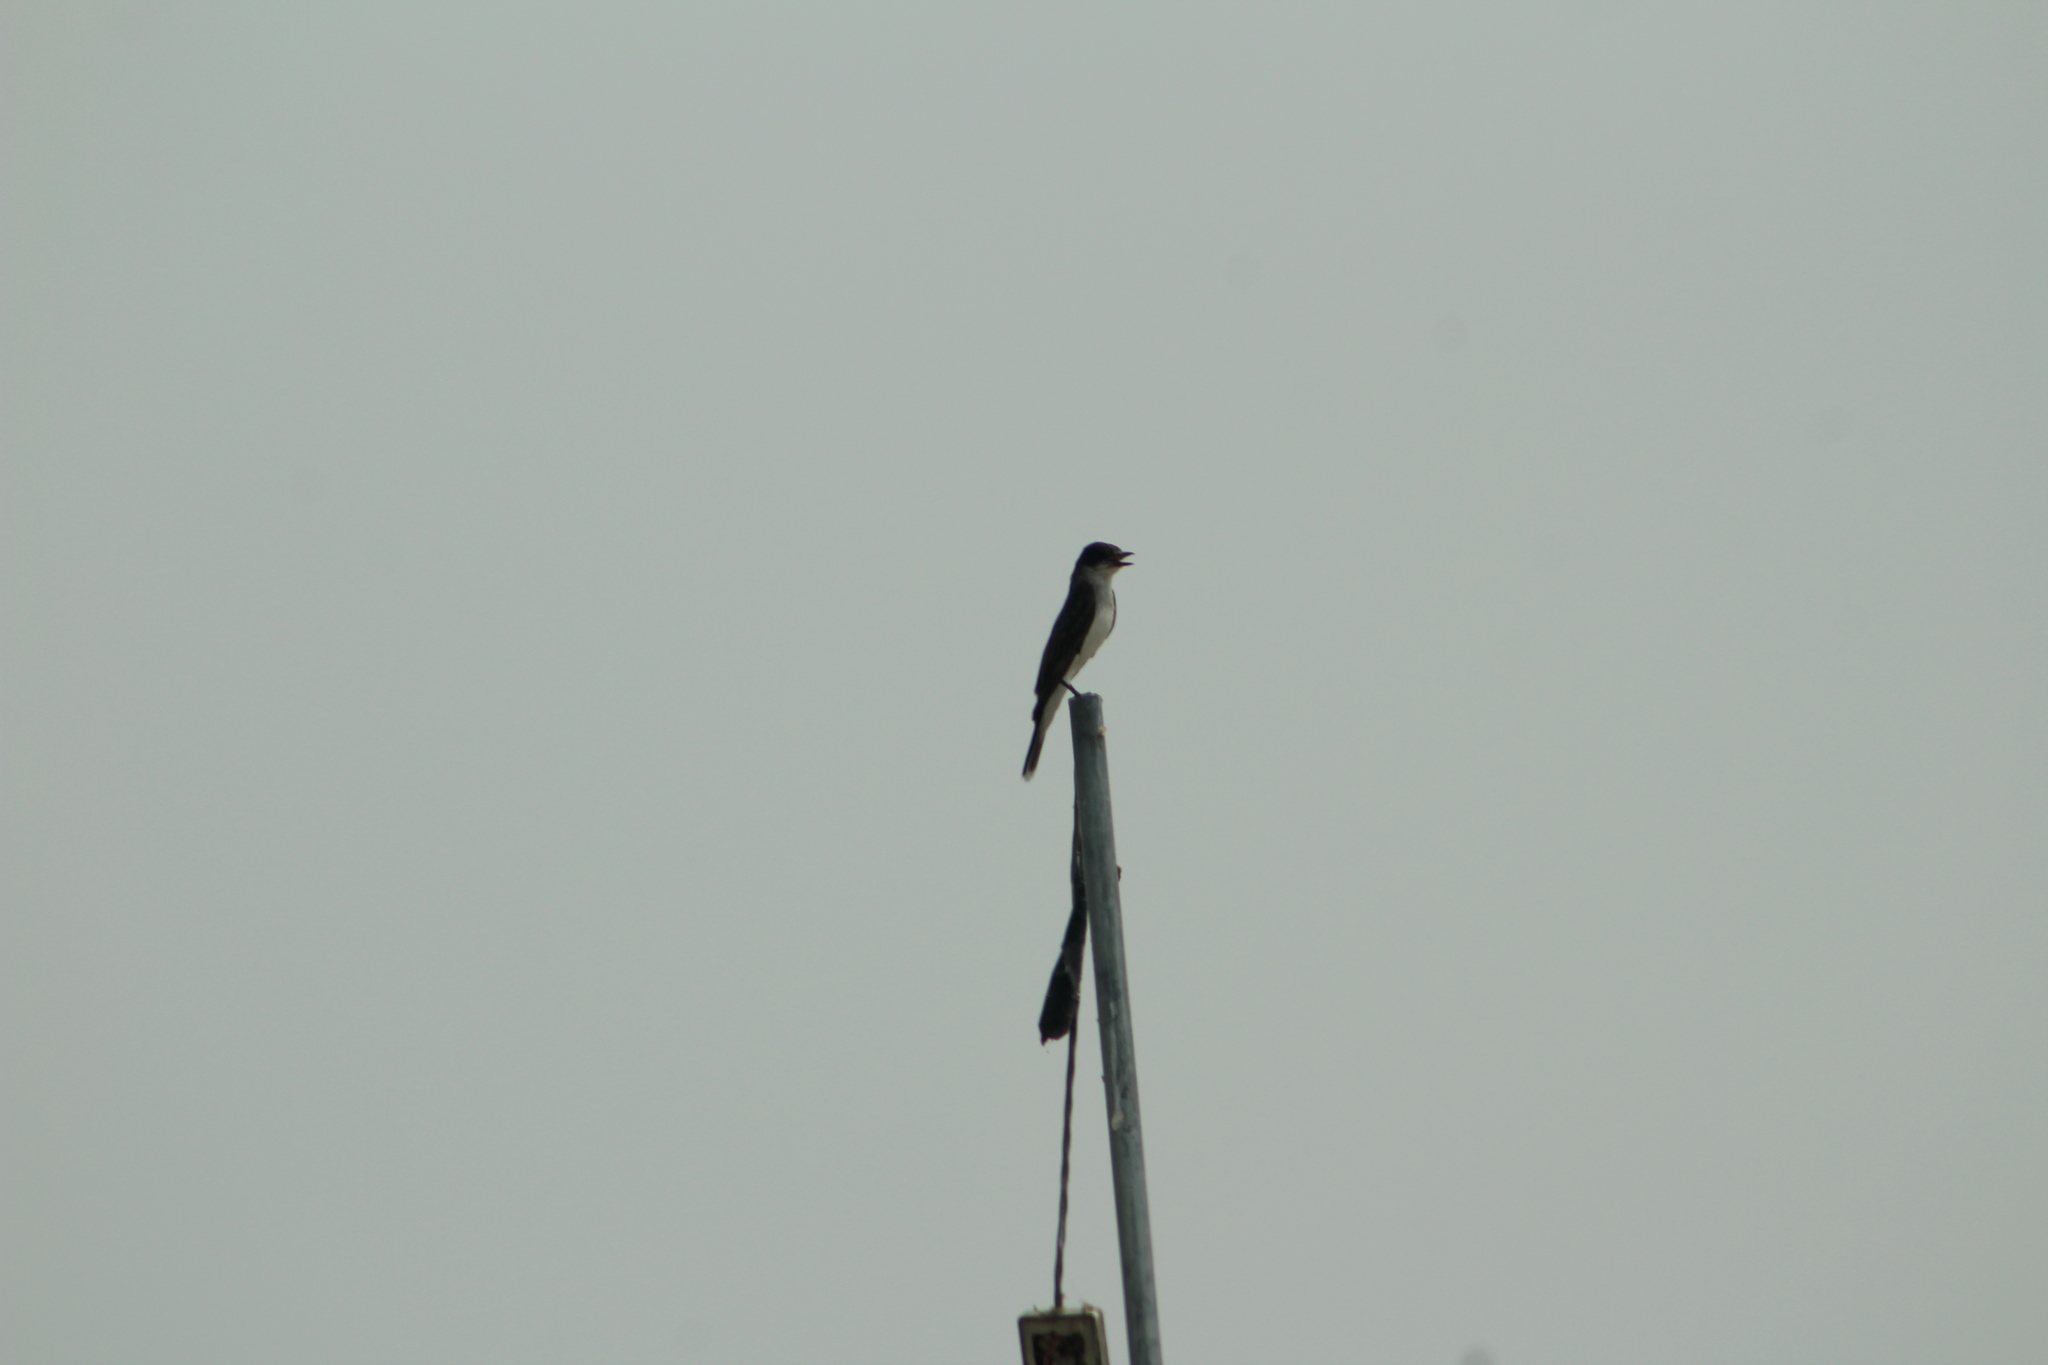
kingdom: Animalia
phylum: Chordata
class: Aves
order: Passeriformes
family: Tyrannidae
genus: Tyrannus
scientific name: Tyrannus tyrannus
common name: Eastern kingbird
